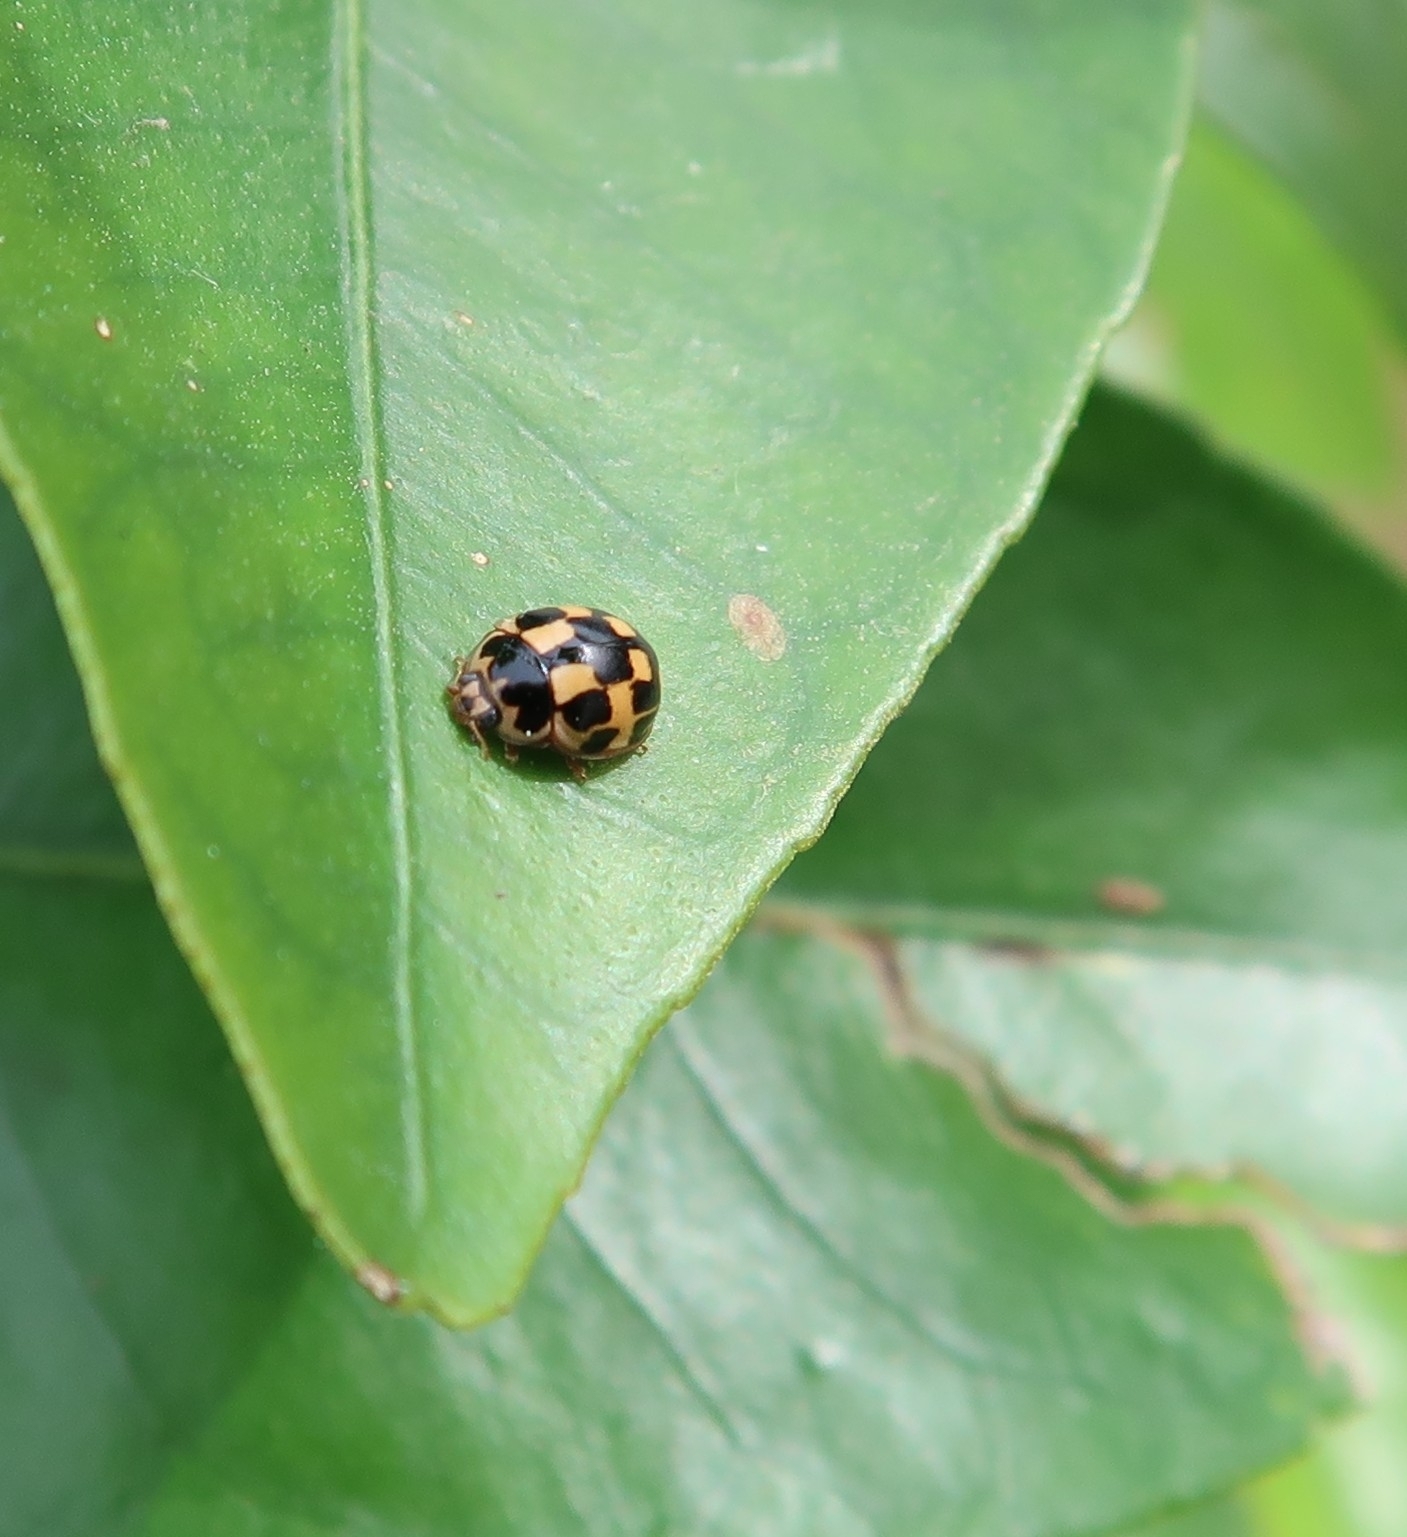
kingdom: Animalia
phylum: Arthropoda
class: Insecta
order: Coleoptera
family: Coccinellidae
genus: Propylaea
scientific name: Propylaea quatuordecimpunctata
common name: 14-spotted ladybird beetle
